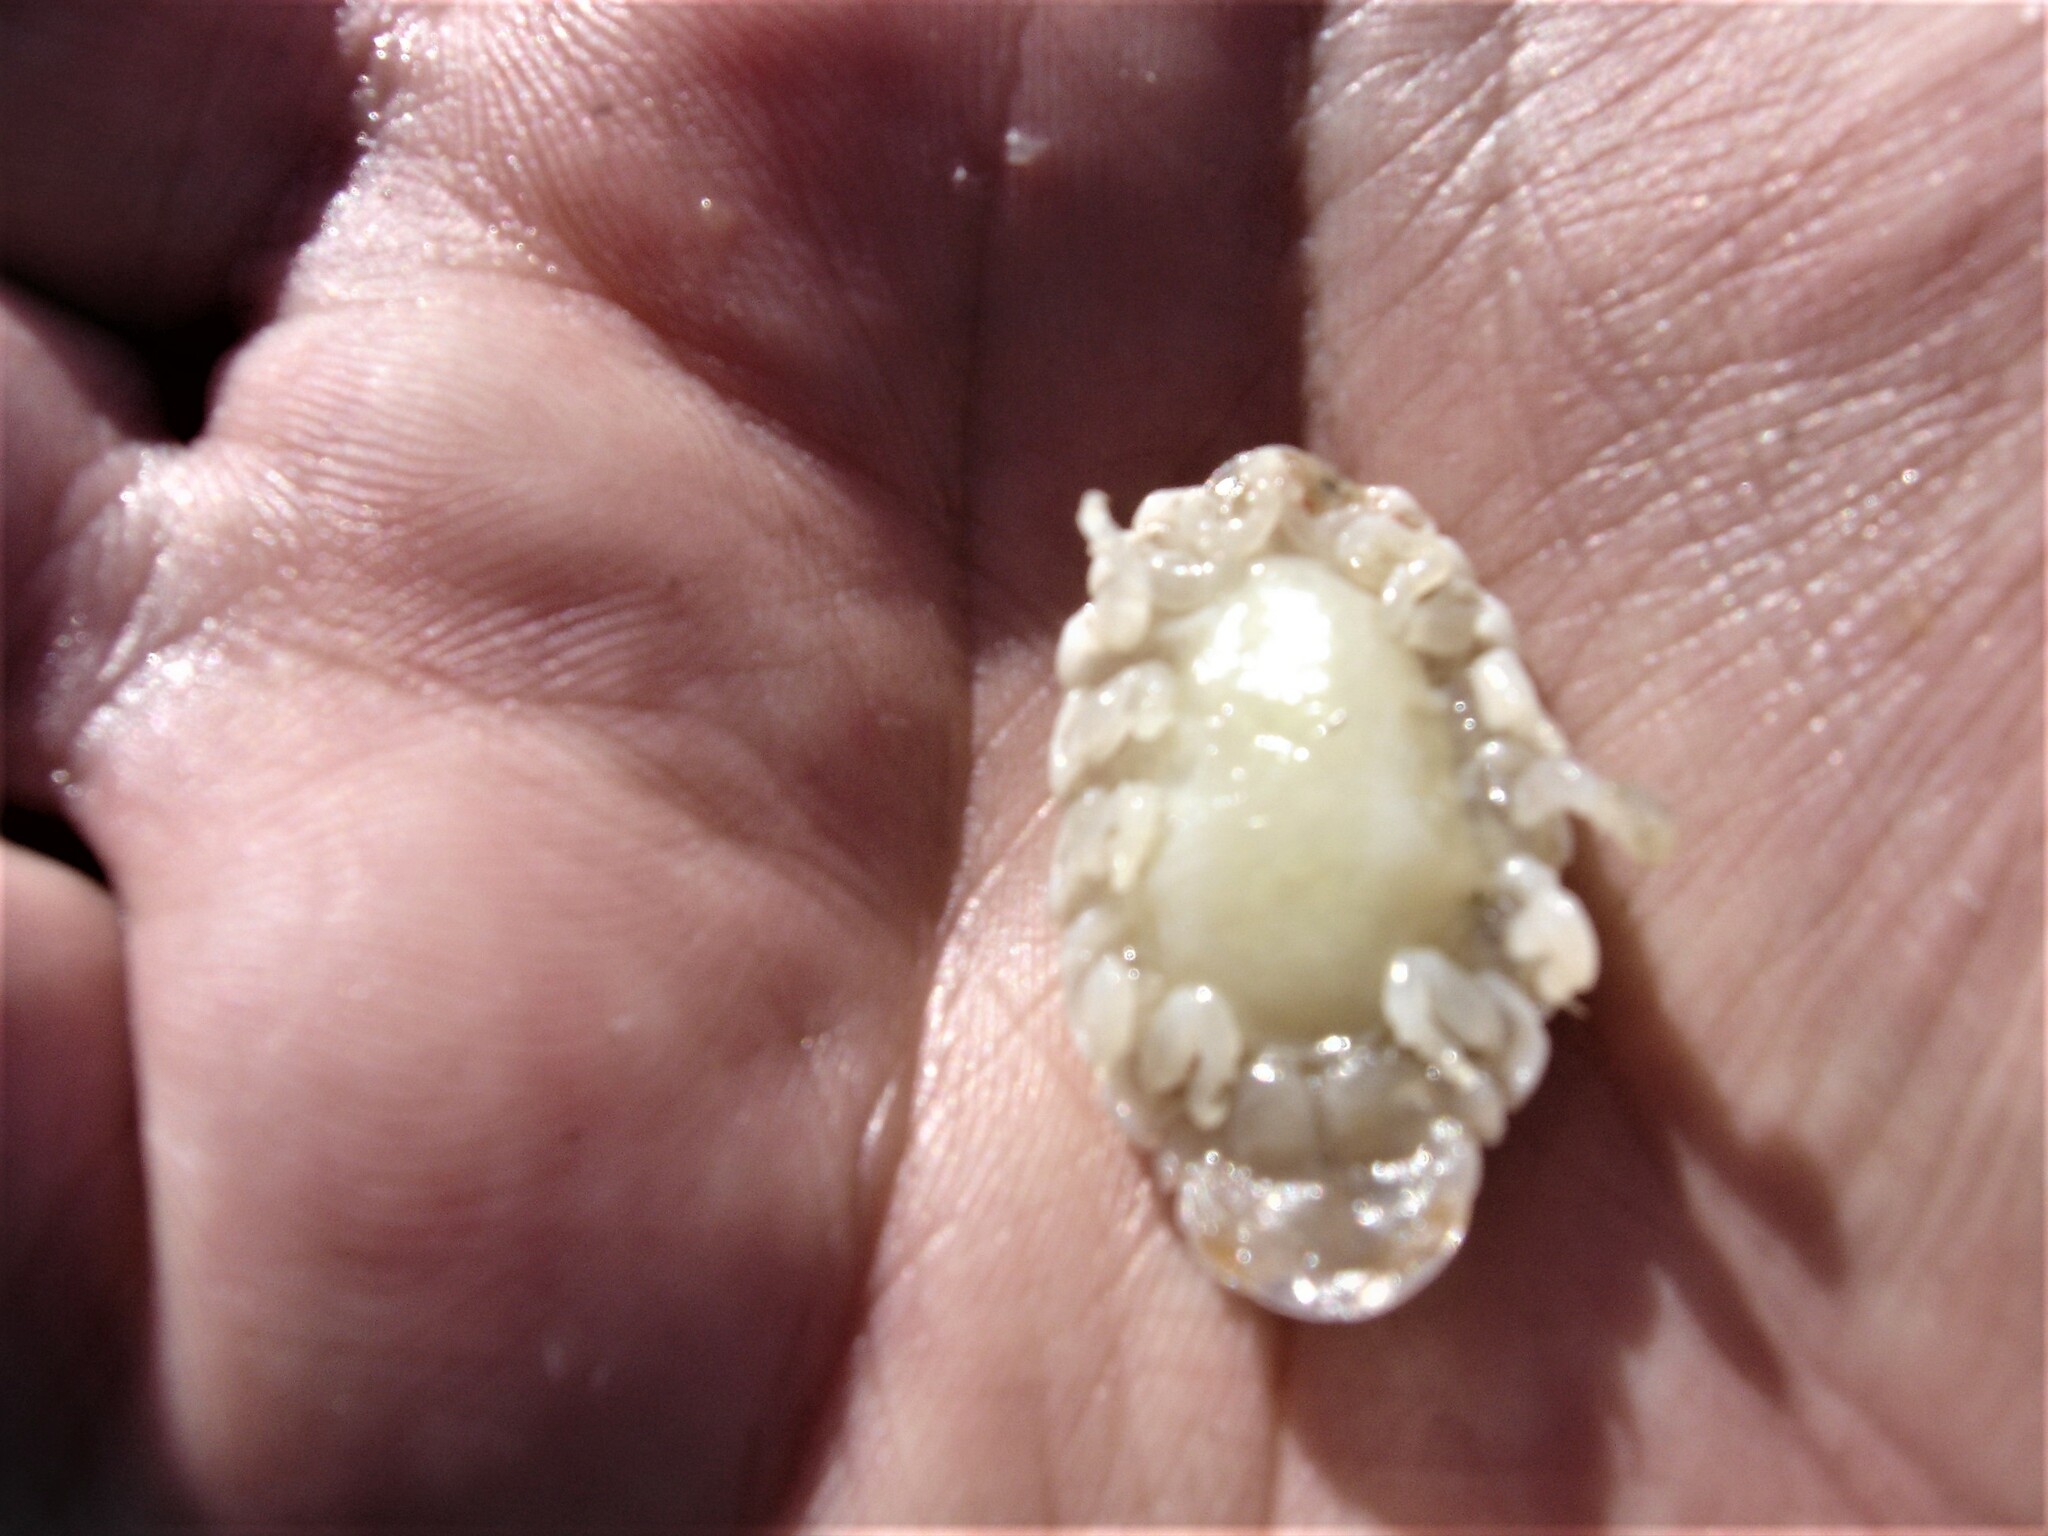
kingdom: Animalia
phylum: Arthropoda
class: Malacostraca
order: Isopoda
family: Cymothoidae
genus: Elthusa
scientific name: Elthusa vulgaris
